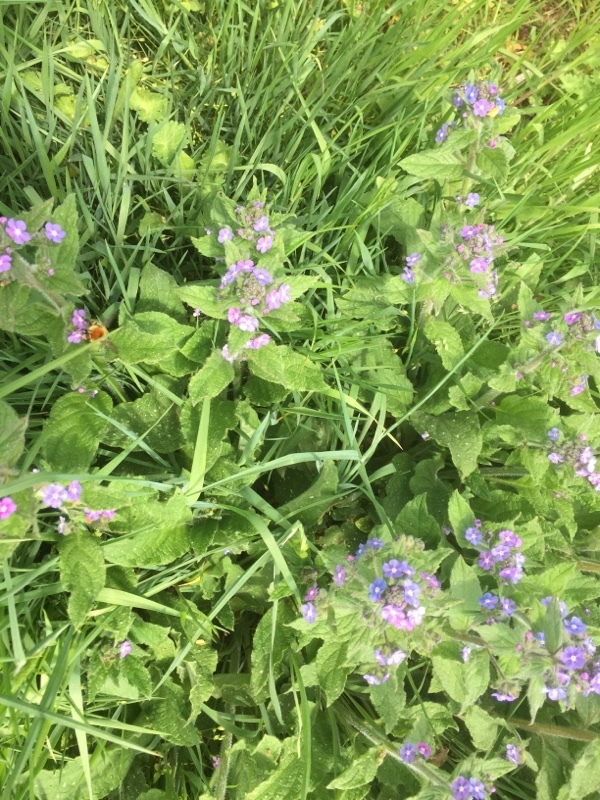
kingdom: Plantae
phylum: Tracheophyta
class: Magnoliopsida
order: Boraginales
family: Boraginaceae
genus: Pentaglottis
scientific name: Pentaglottis sempervirens
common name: Green alkanet
